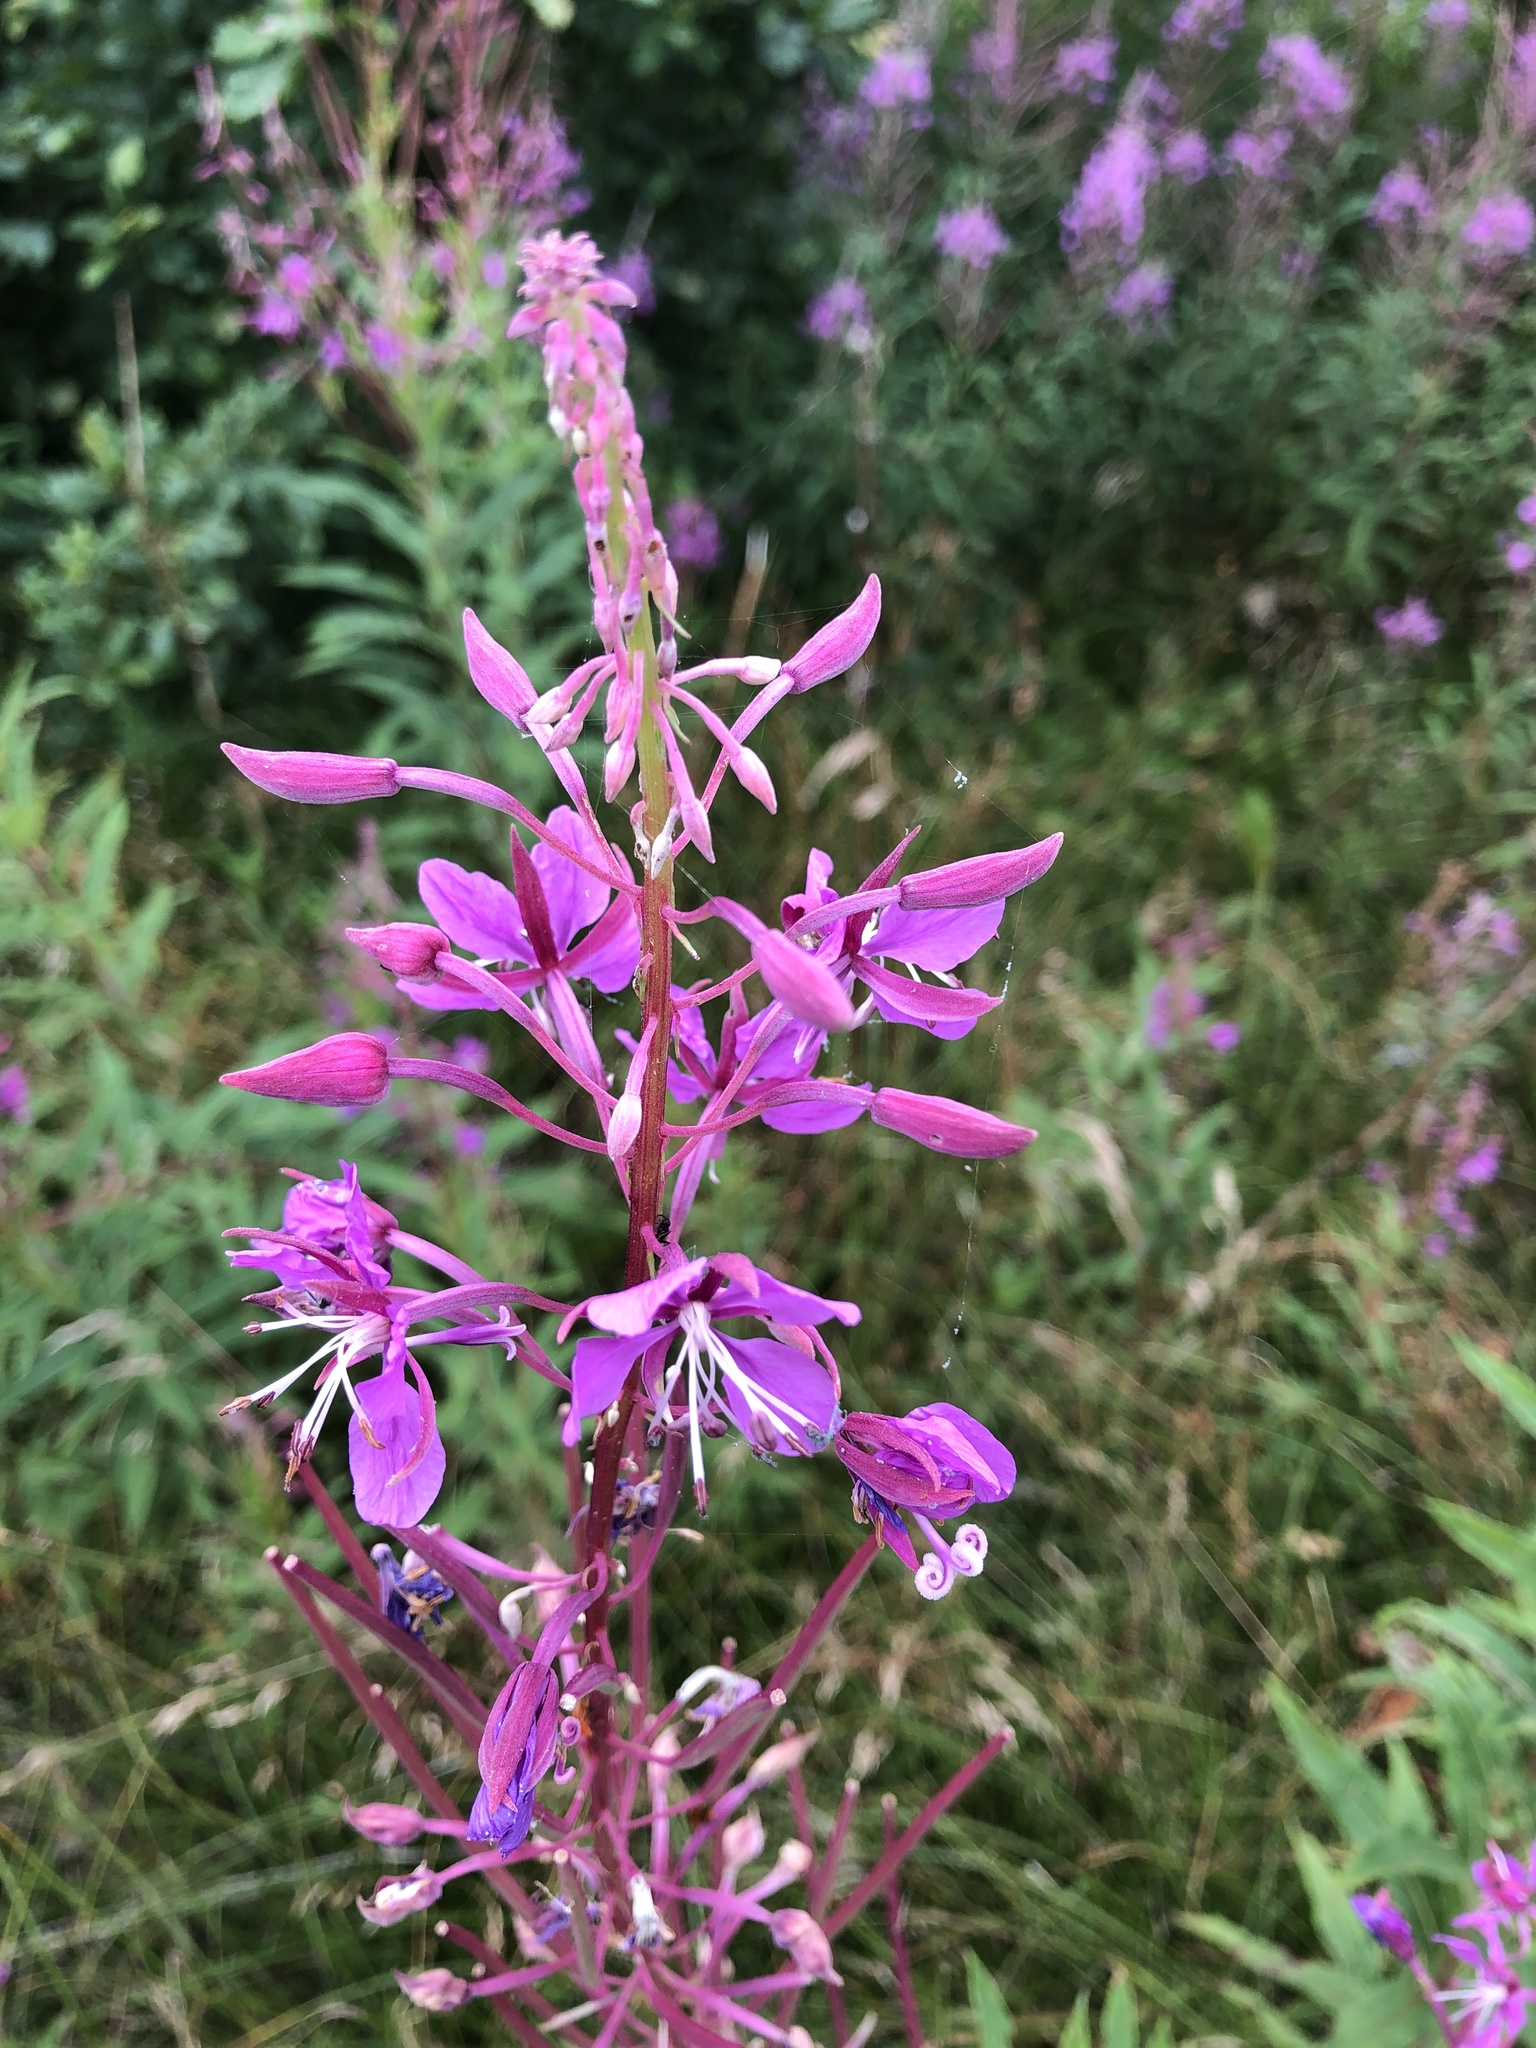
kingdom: Plantae
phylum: Tracheophyta
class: Magnoliopsida
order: Myrtales
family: Onagraceae
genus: Chamaenerion
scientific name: Chamaenerion angustifolium
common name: Fireweed
